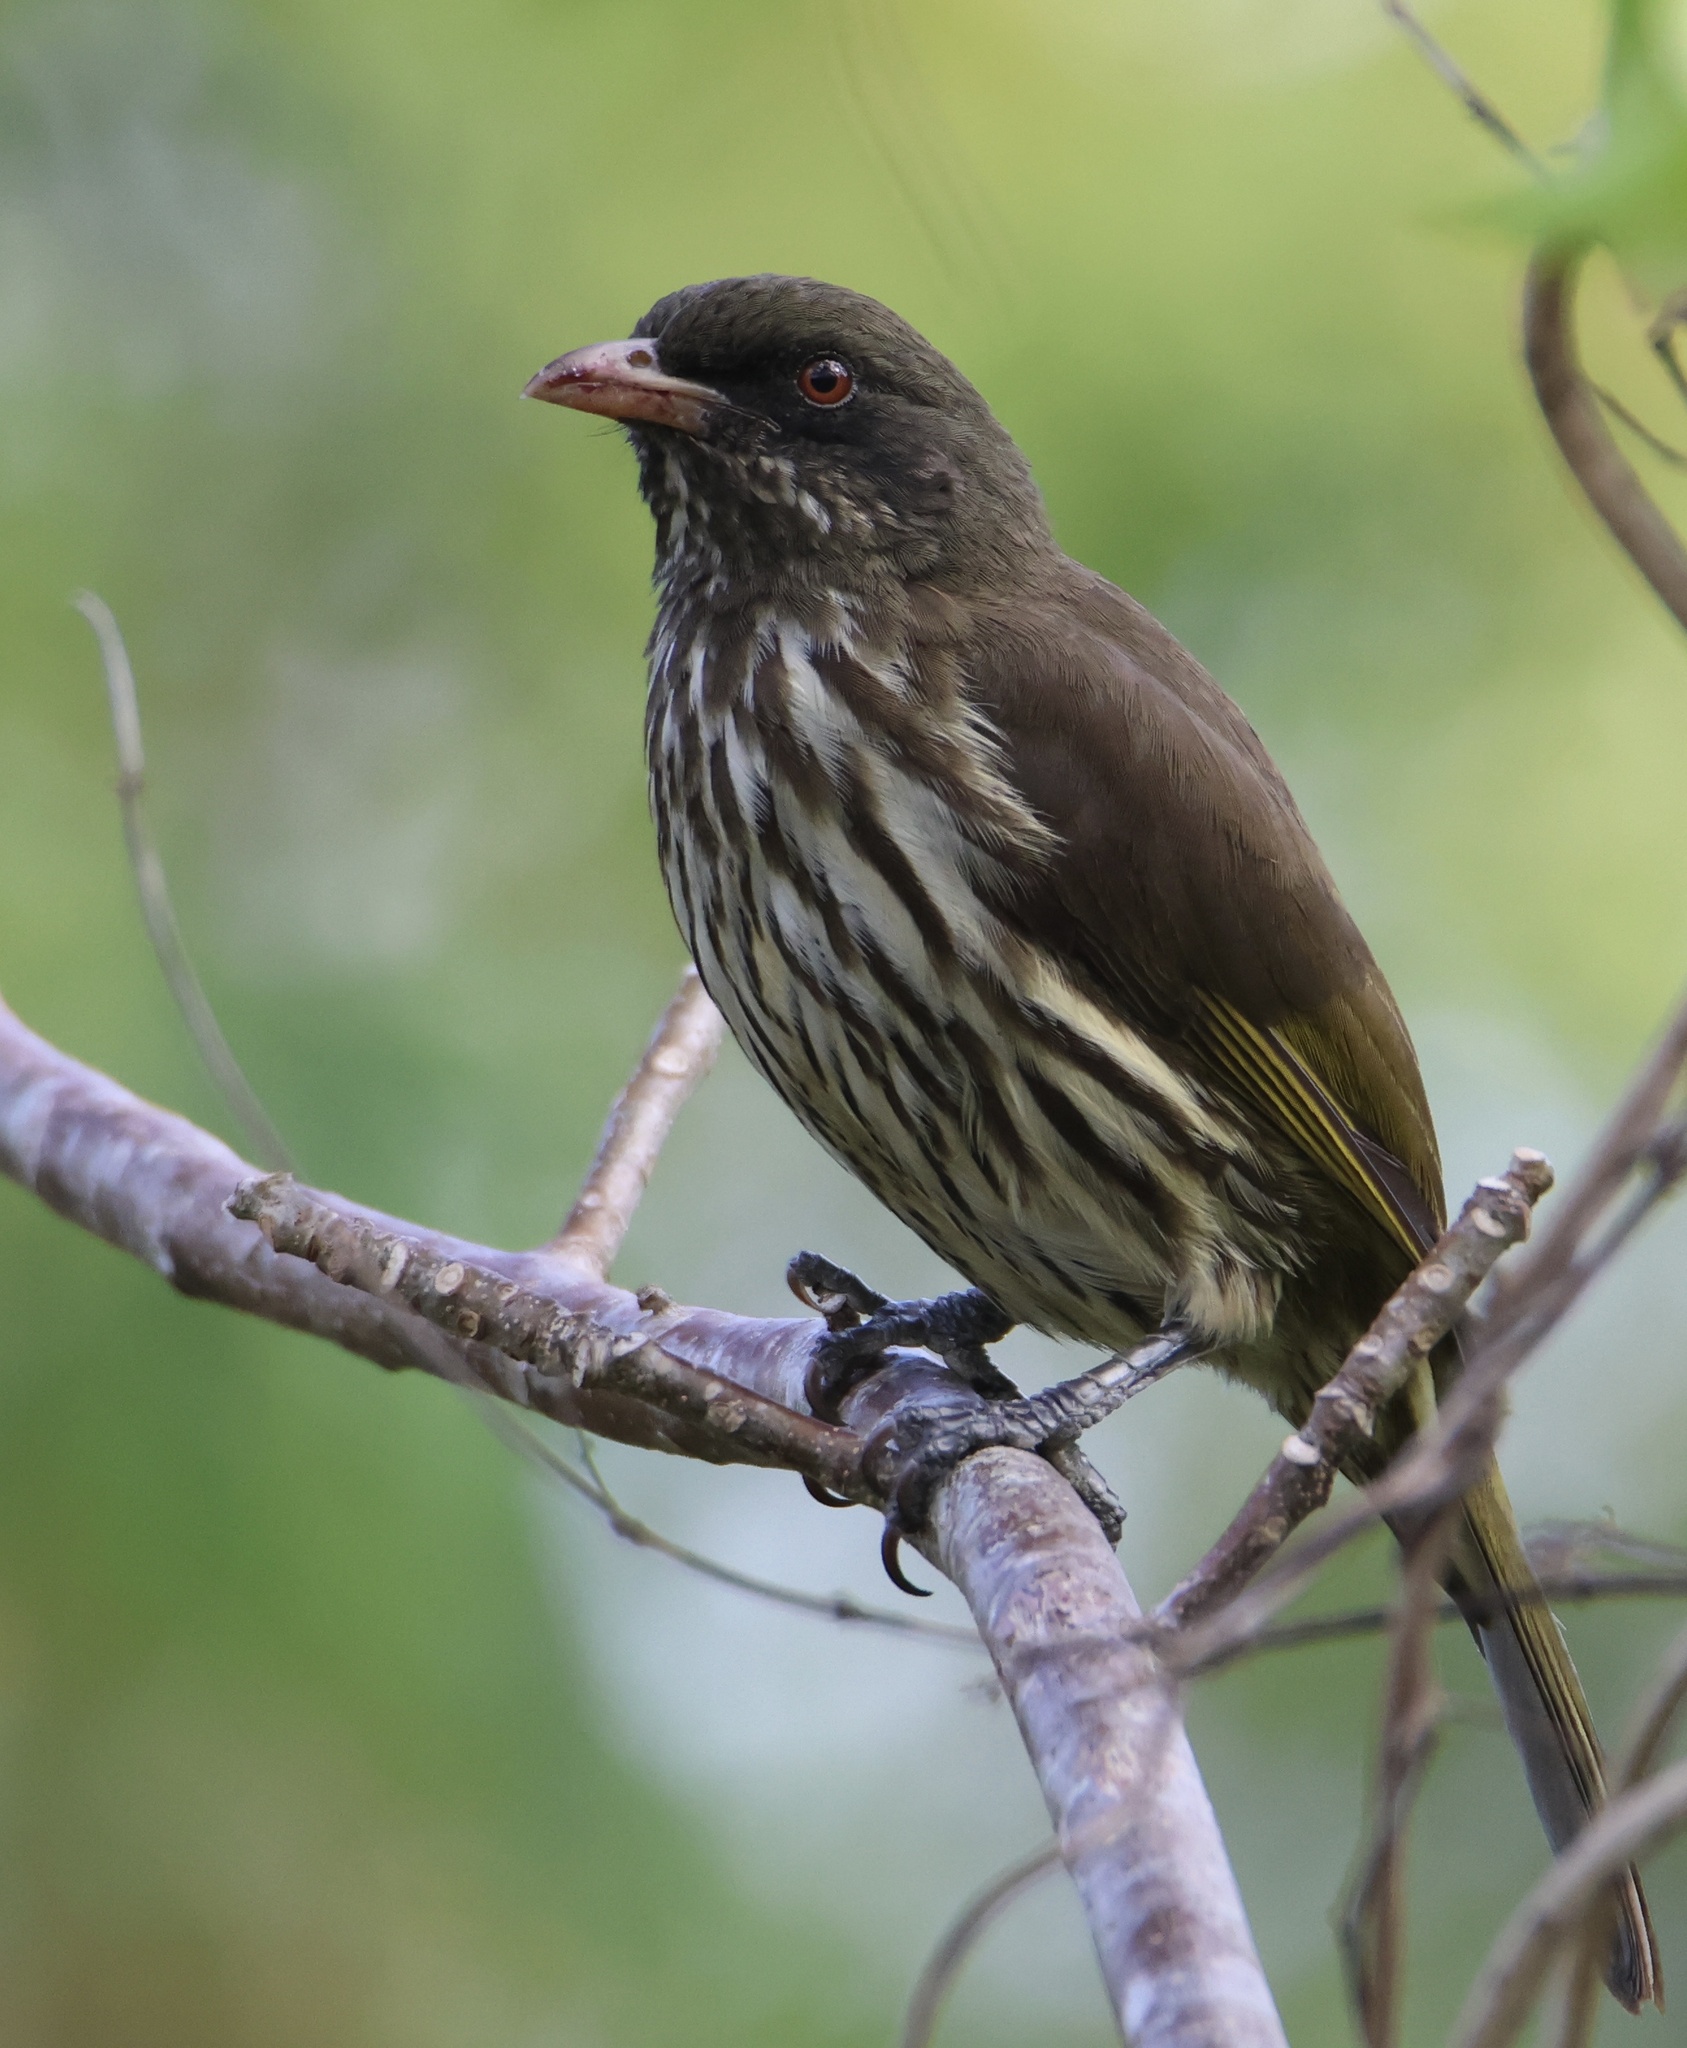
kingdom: Animalia
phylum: Chordata
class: Aves
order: Passeriformes
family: Dulidae
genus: Dulus
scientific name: Dulus dominicus
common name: Palmchat
